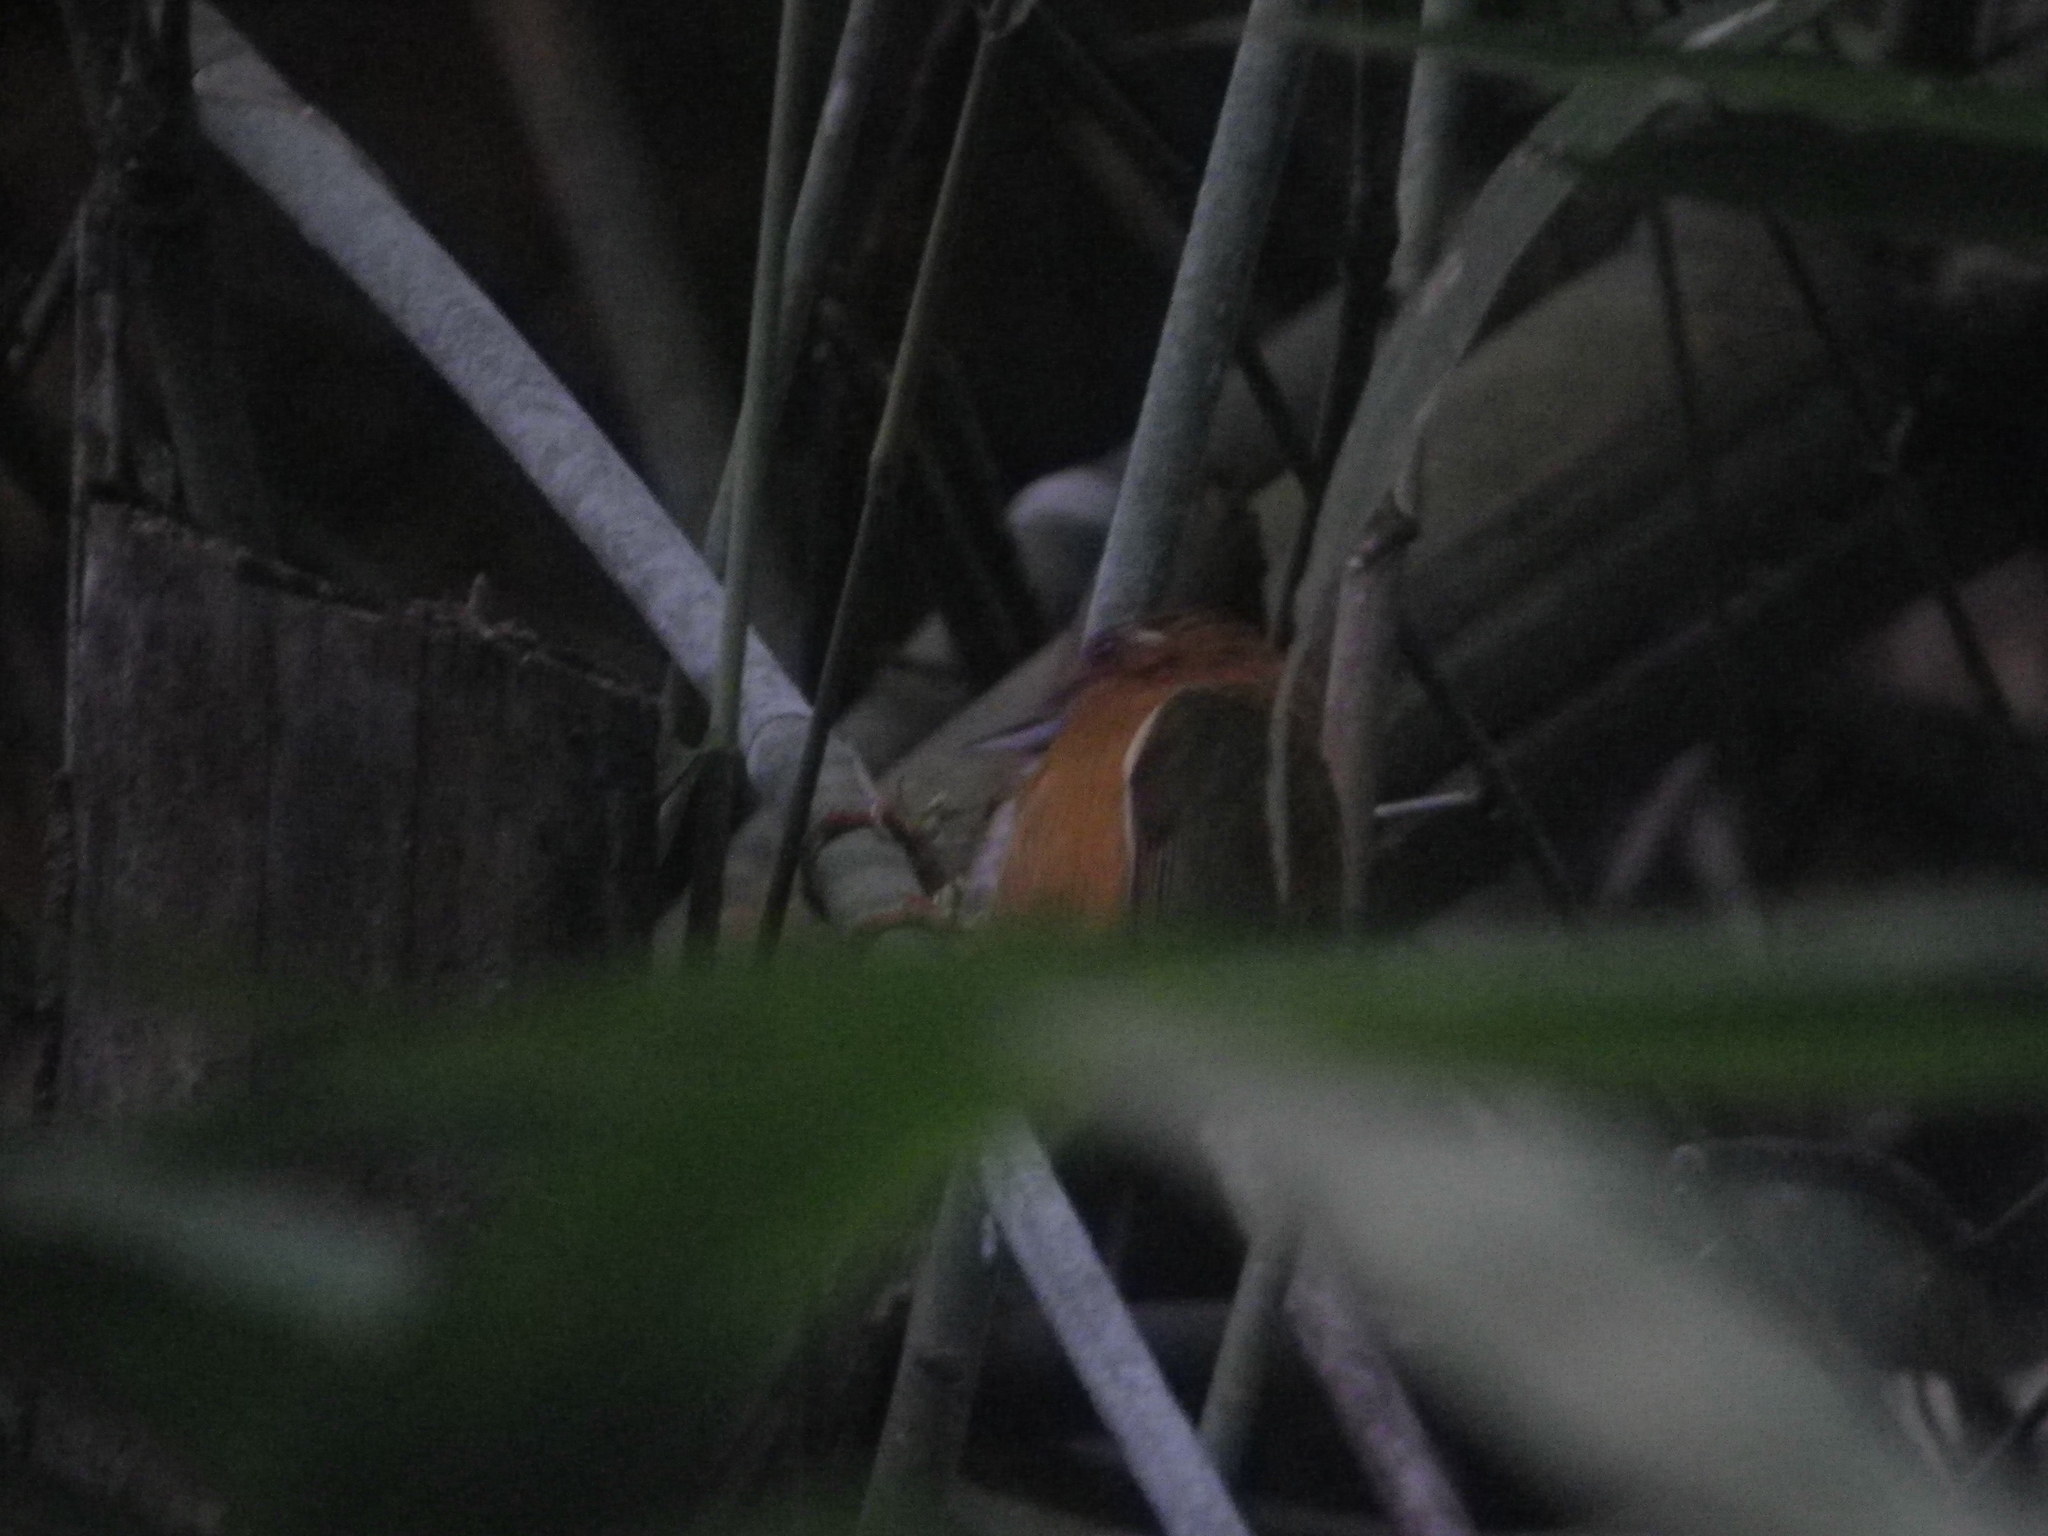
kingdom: Animalia
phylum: Chordata
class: Aves
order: Piciformes
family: Picidae
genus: Sasia
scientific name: Sasia ochracea
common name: White-browed piculet
